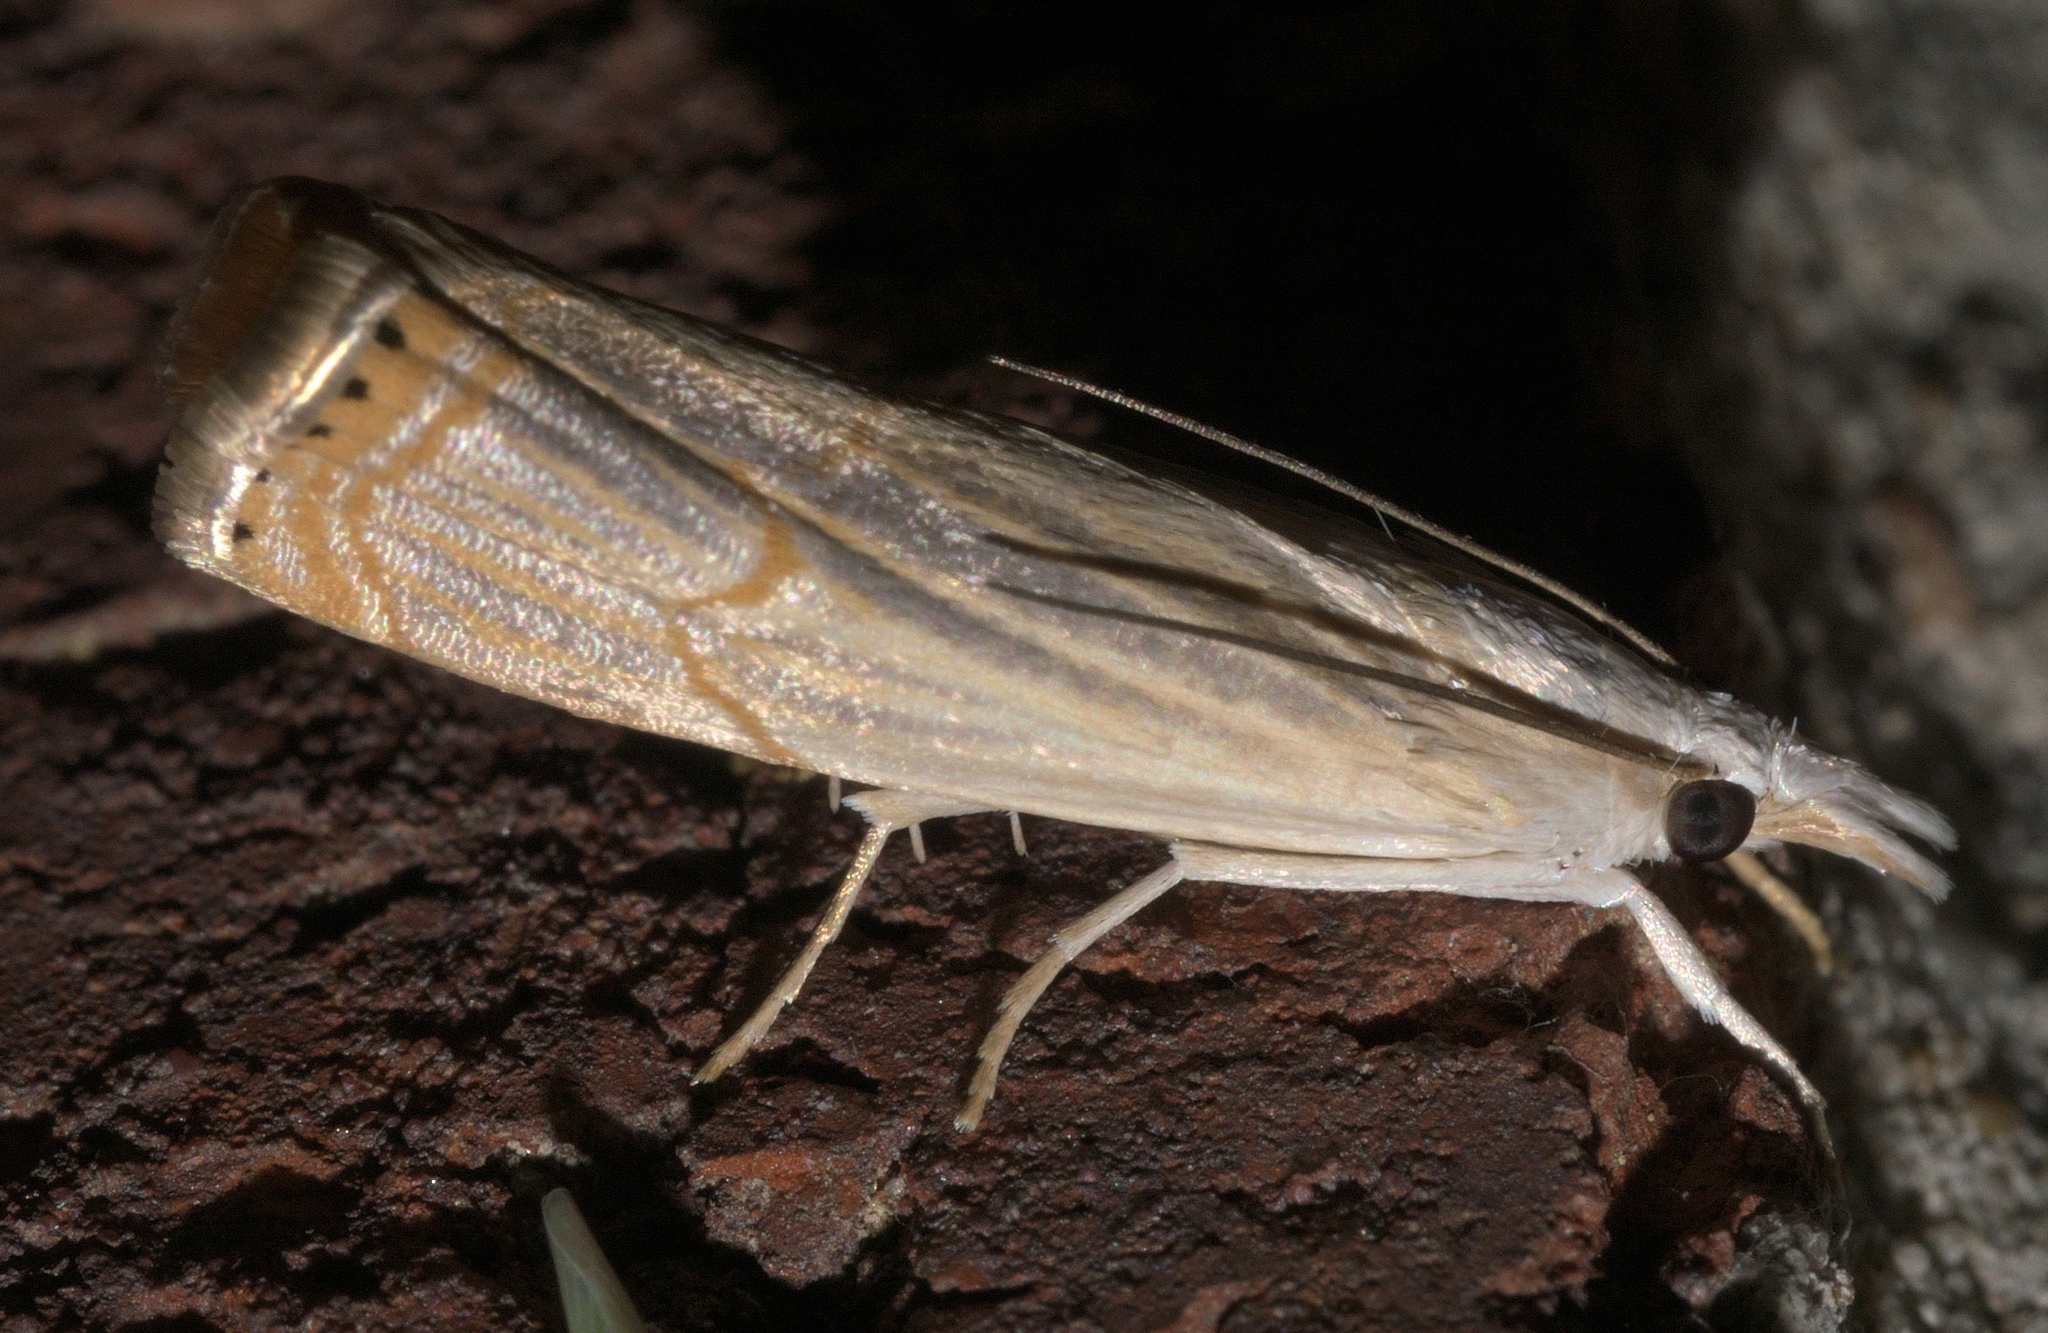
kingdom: Animalia
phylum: Arthropoda
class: Insecta
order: Lepidoptera
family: Crambidae
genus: Parapediasia
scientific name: Parapediasia decorellus
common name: Graceful grass-veneer
